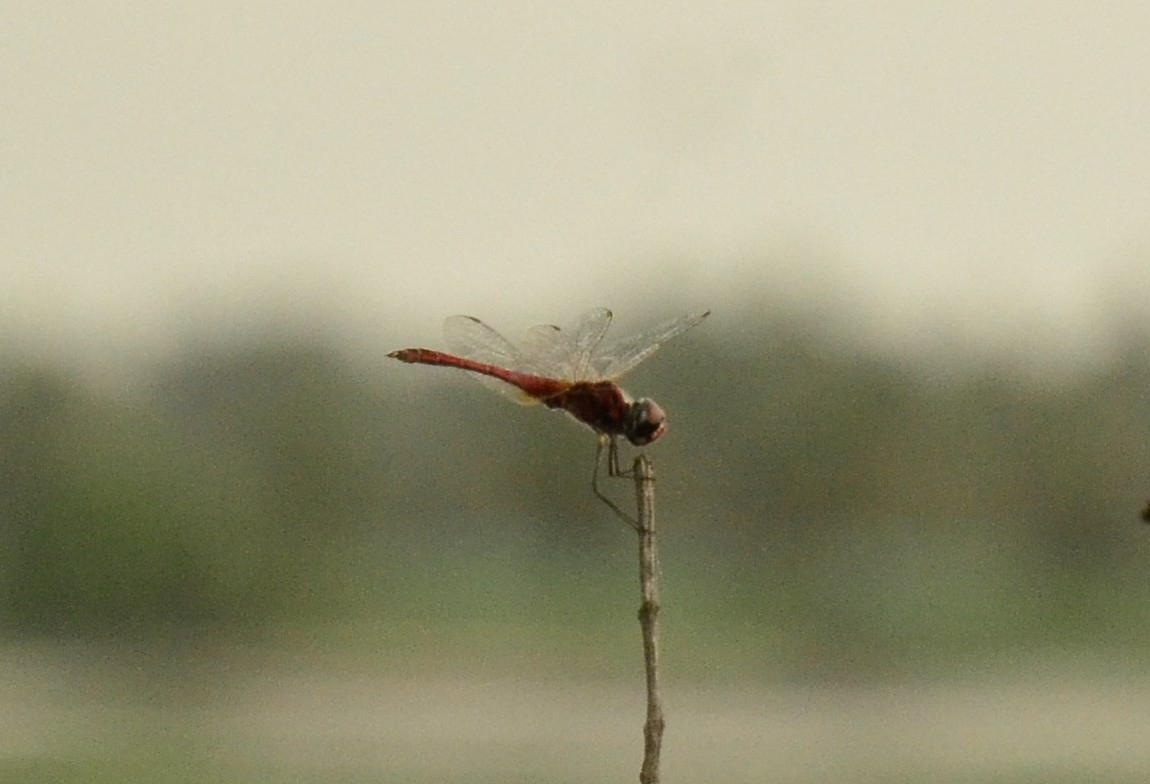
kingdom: Animalia
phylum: Arthropoda
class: Insecta
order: Odonata
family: Libellulidae
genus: Macrodiplax
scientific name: Macrodiplax cora
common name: Coastal glider
